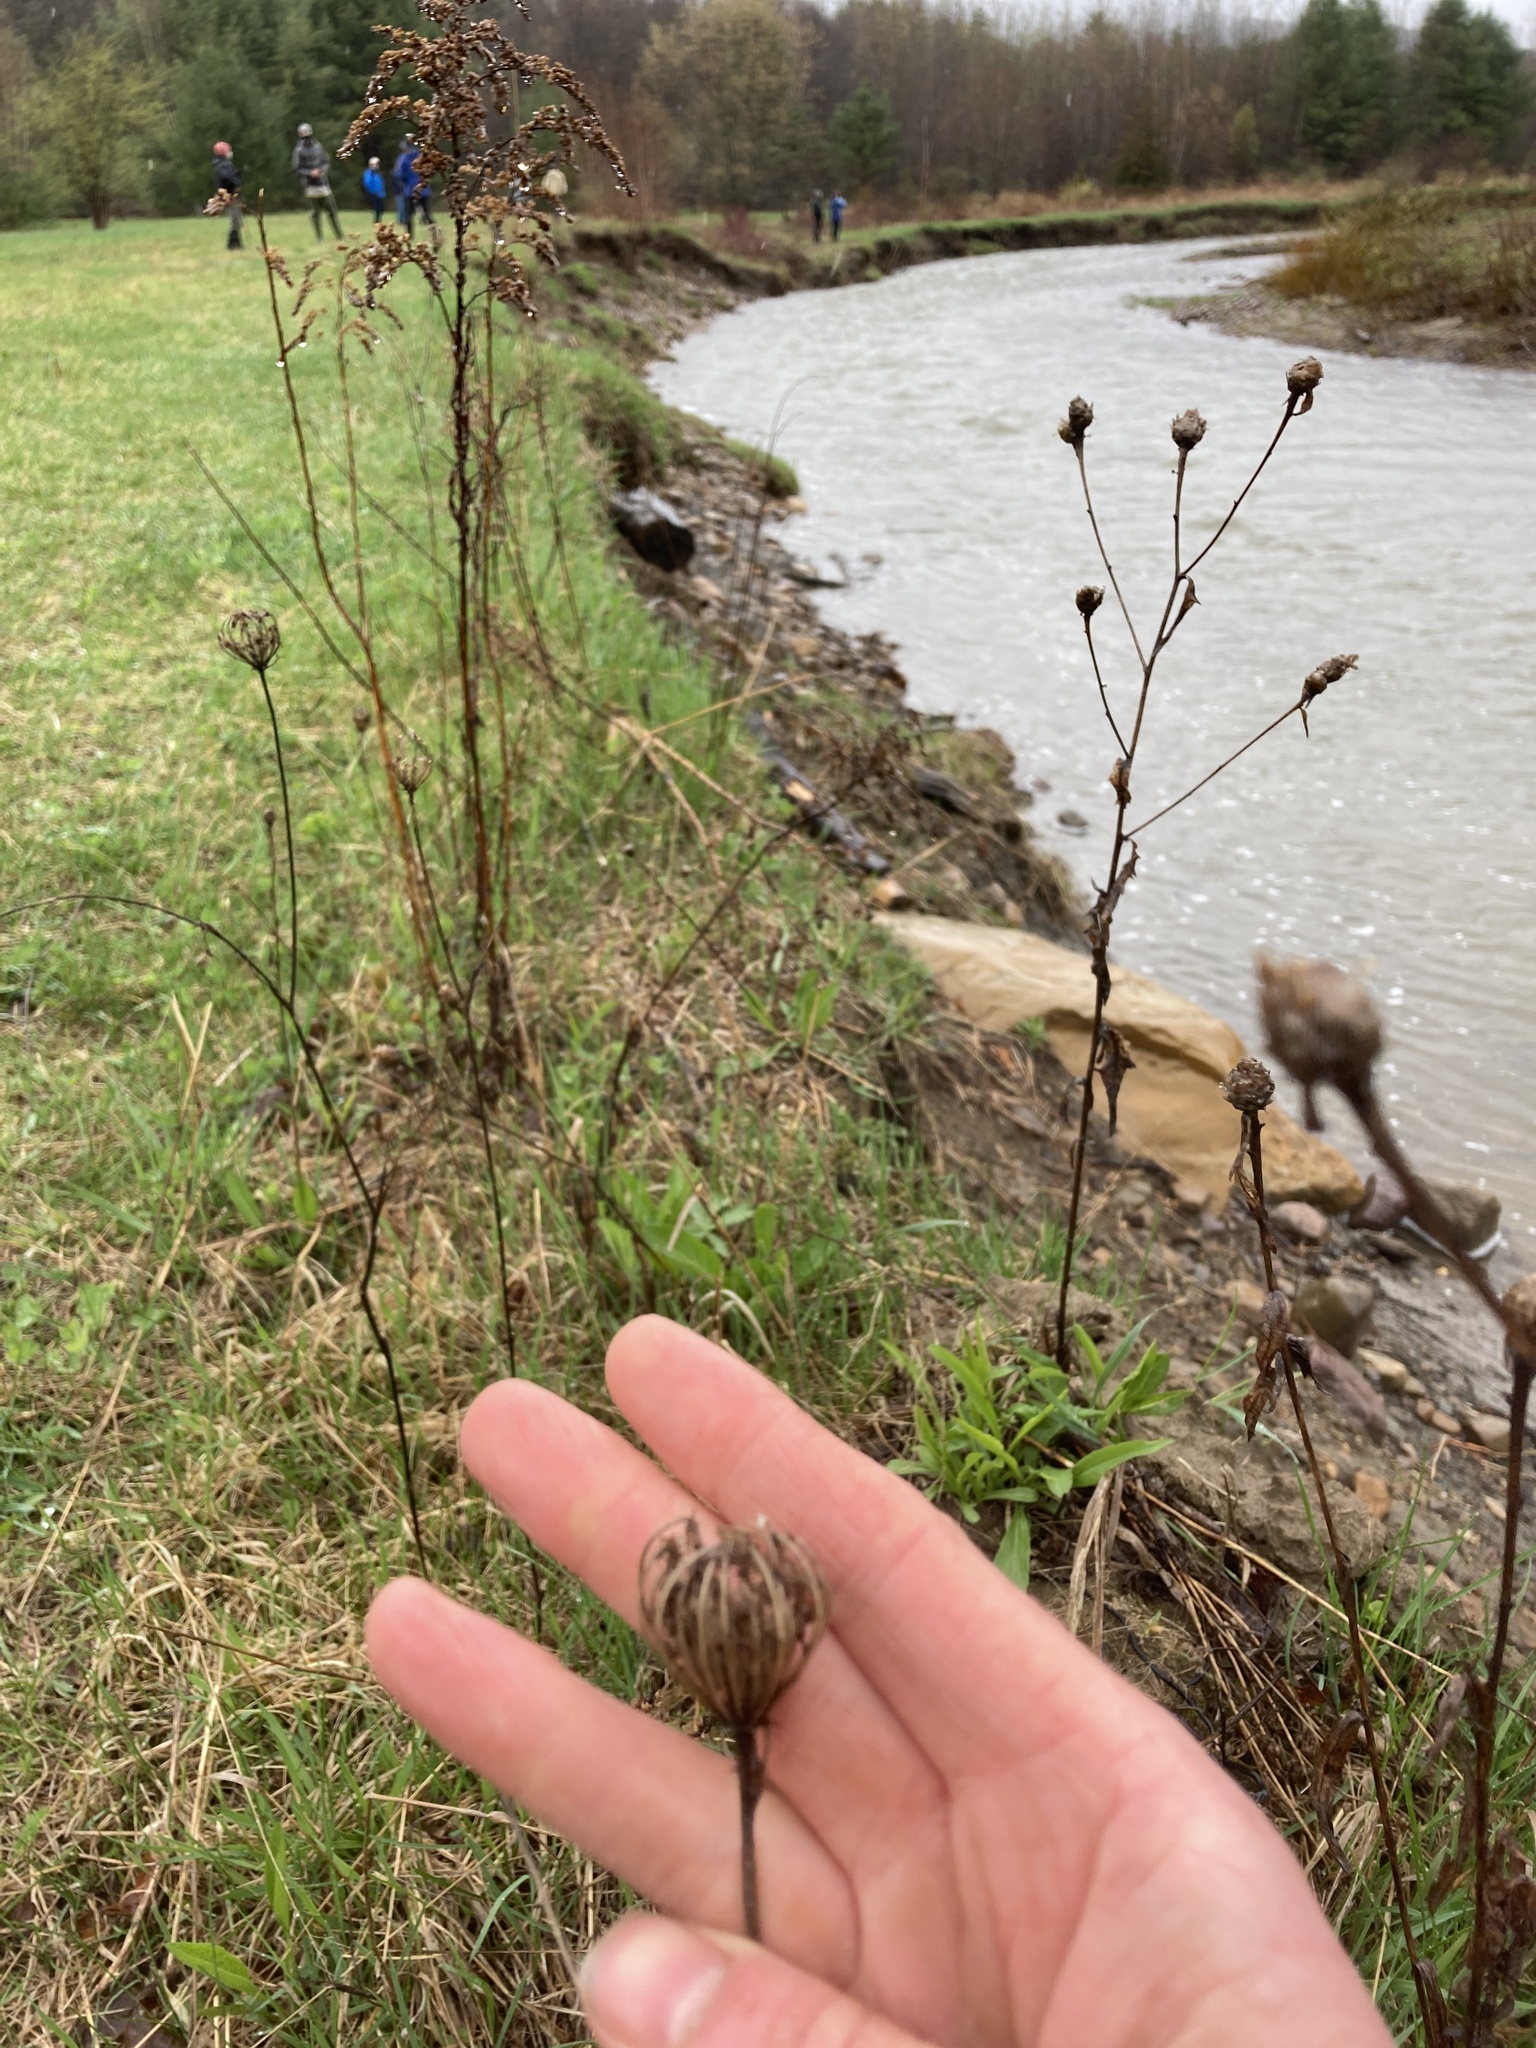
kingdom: Plantae
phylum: Tracheophyta
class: Magnoliopsida
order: Apiales
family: Apiaceae
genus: Daucus
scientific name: Daucus carota
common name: Wild carrot
